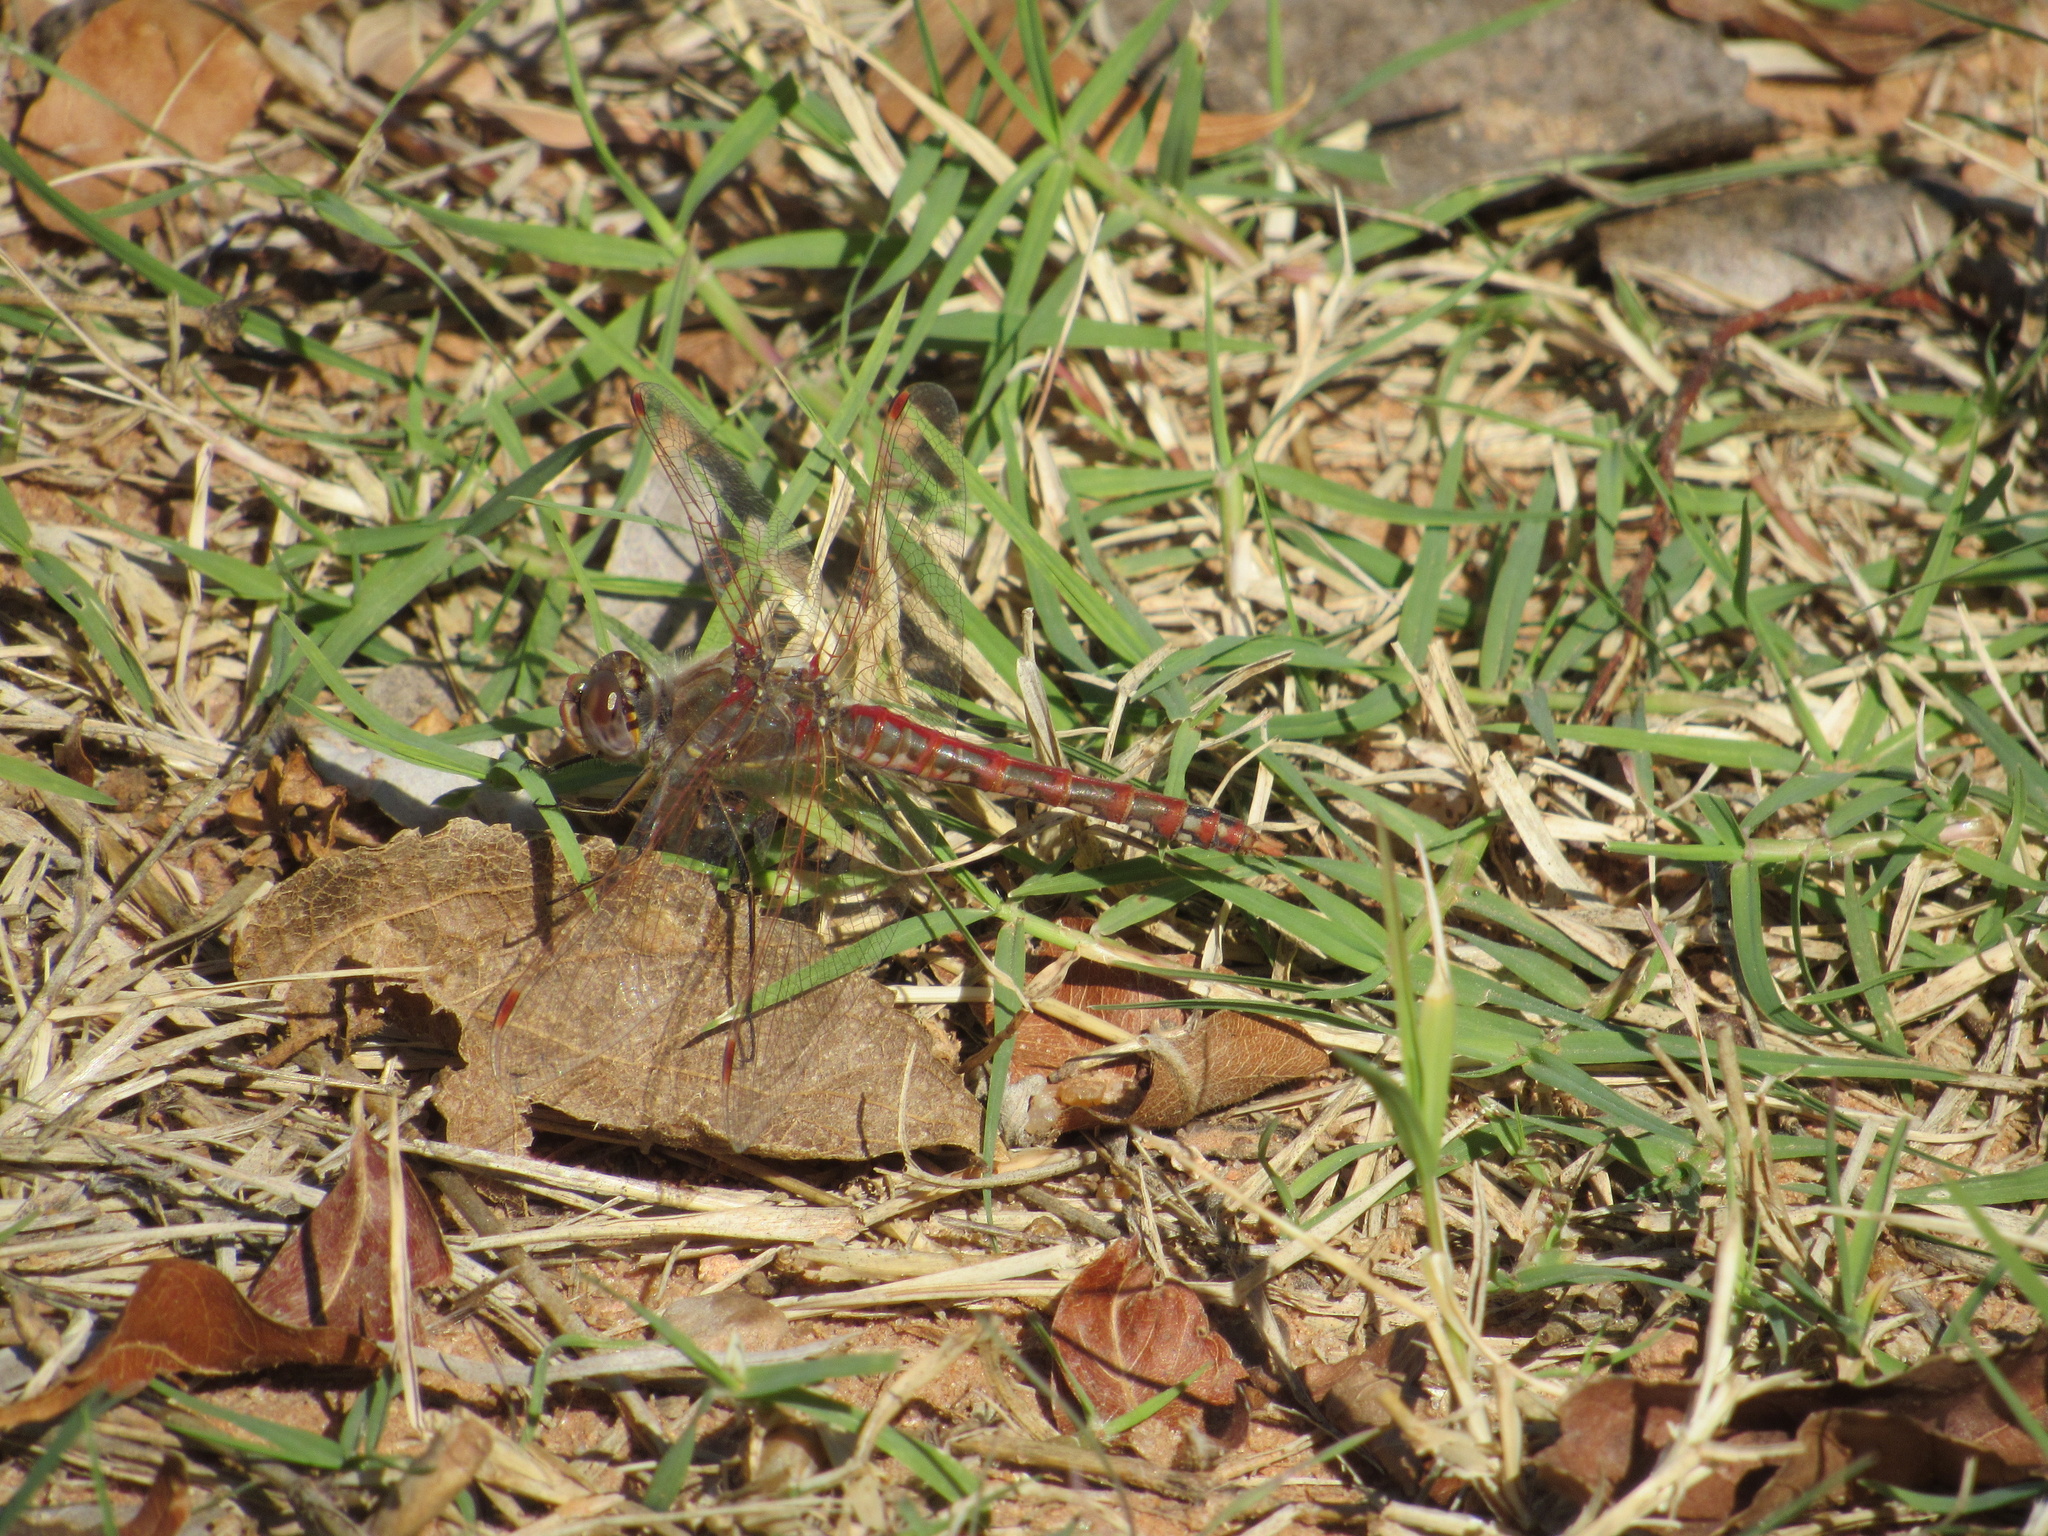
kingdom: Animalia
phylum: Arthropoda
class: Insecta
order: Odonata
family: Libellulidae
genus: Sympetrum
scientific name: Sympetrum corruptum
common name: Variegated meadowhawk
